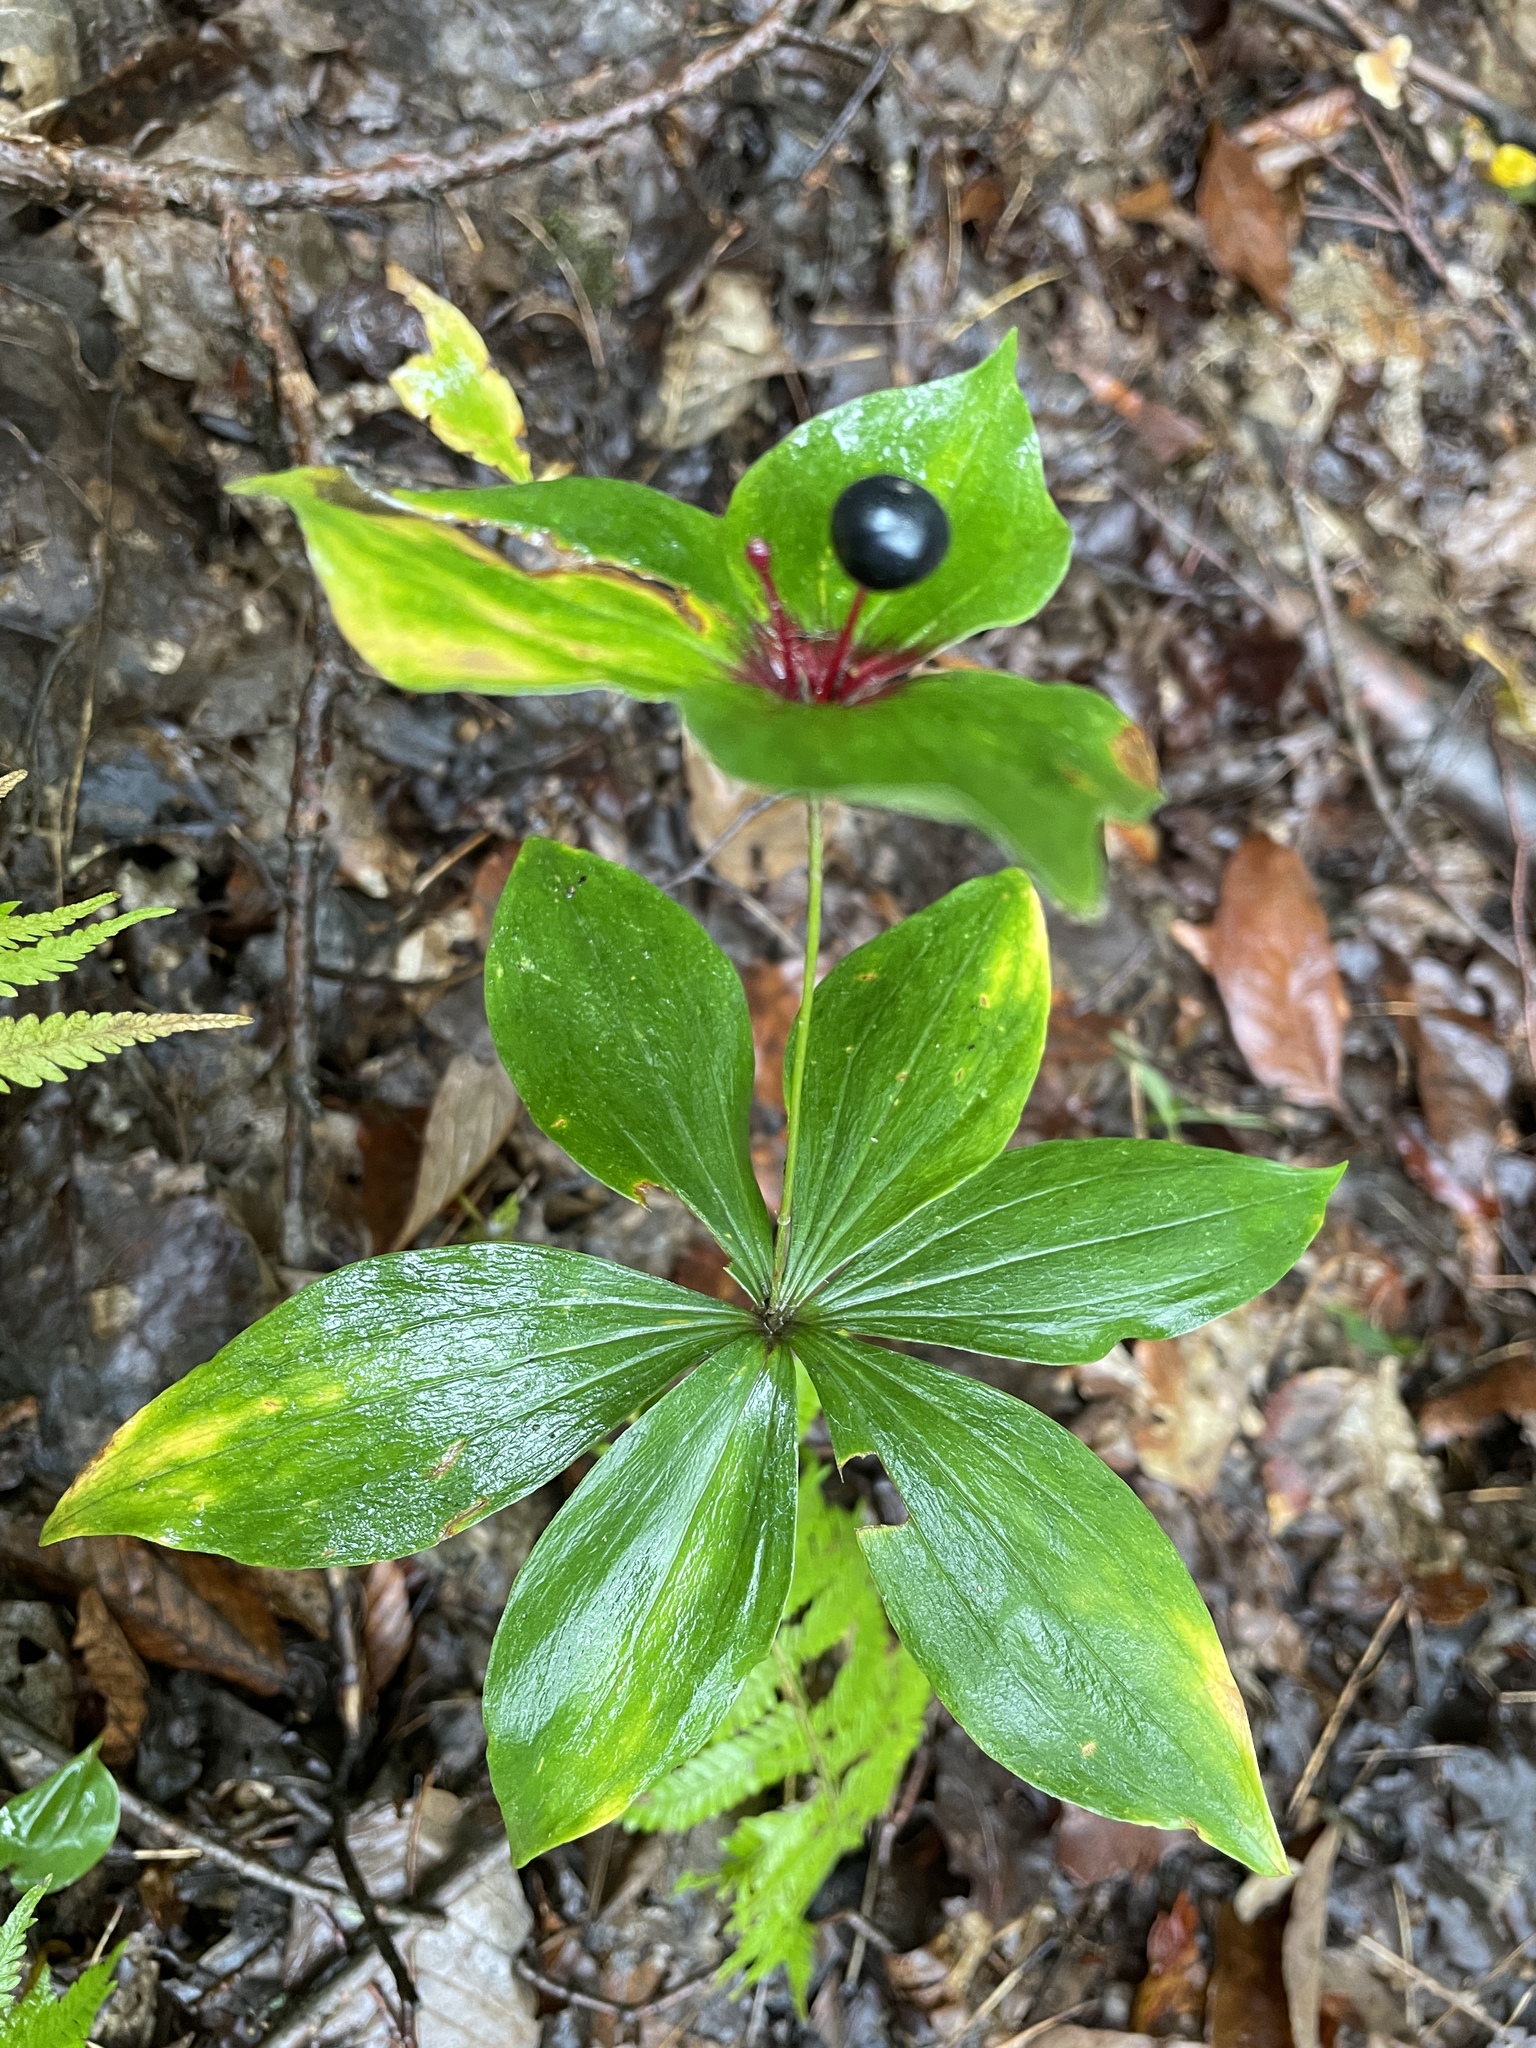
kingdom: Plantae
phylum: Tracheophyta
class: Liliopsida
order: Liliales
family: Liliaceae
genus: Medeola
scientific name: Medeola virginiana
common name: Indian cucumber-root
